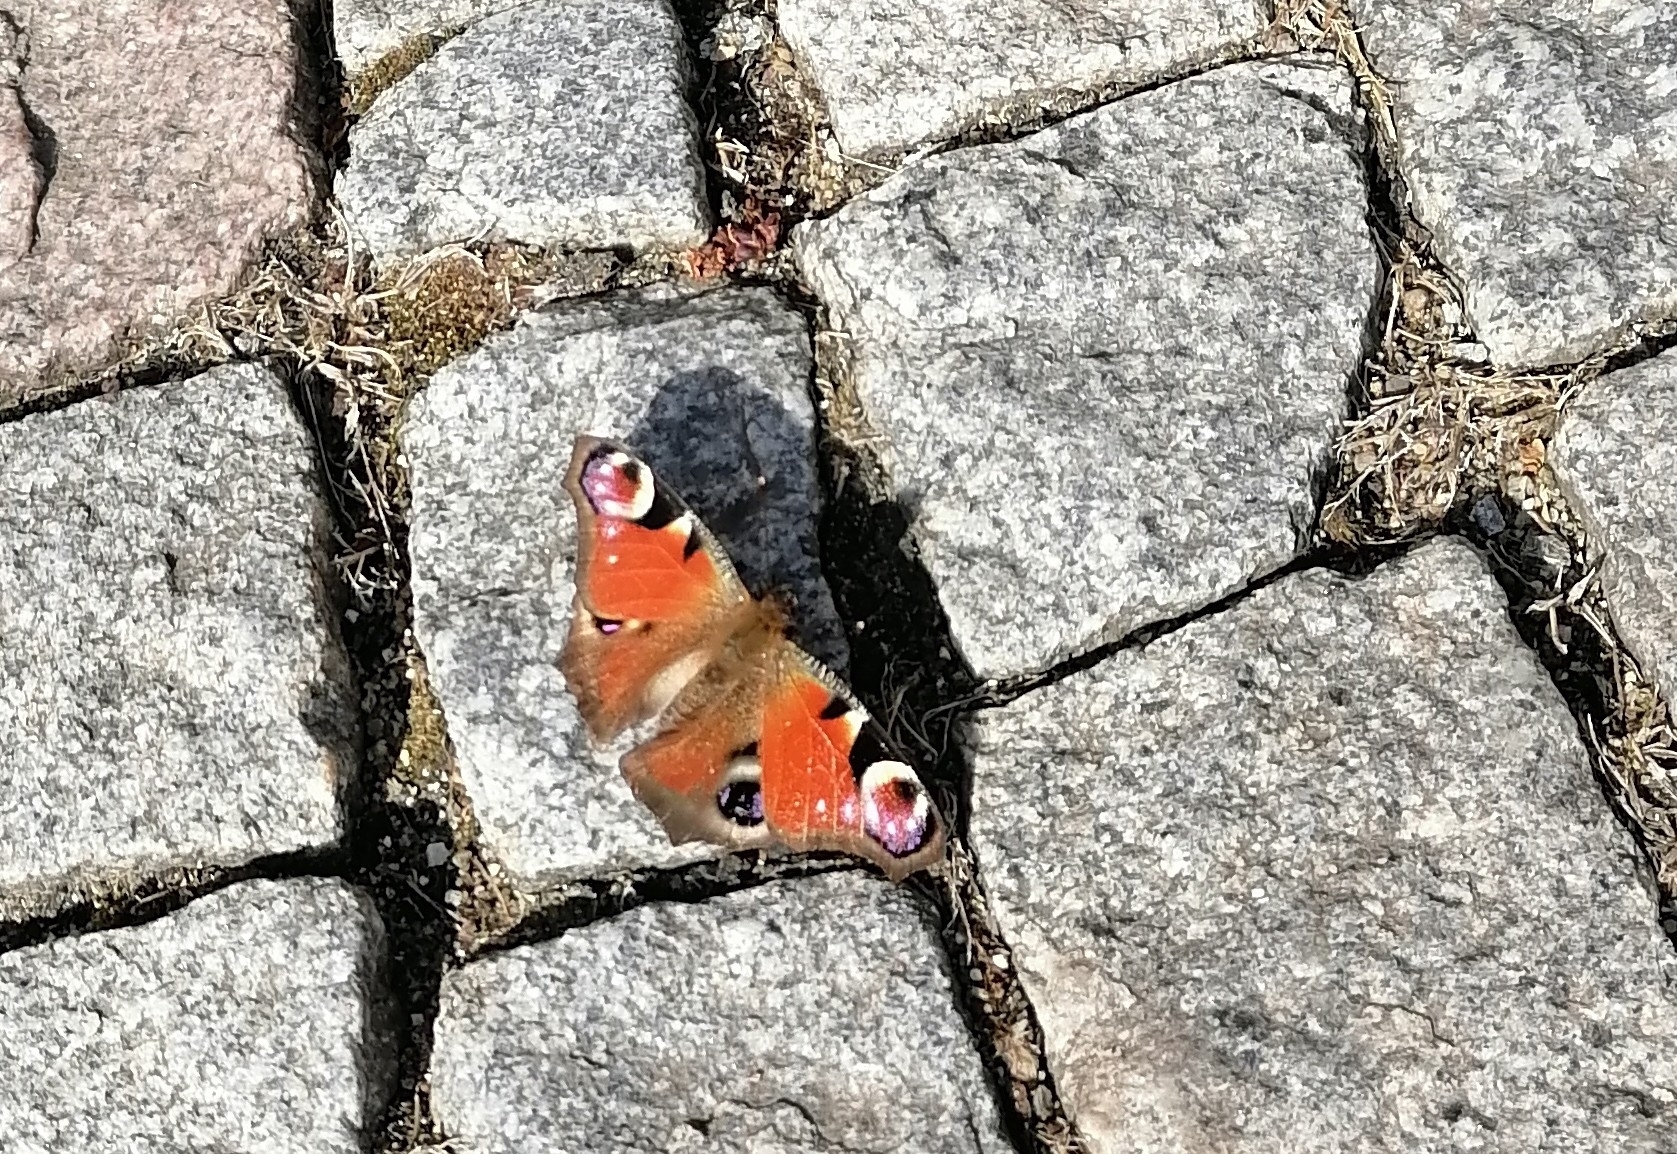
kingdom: Animalia
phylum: Arthropoda
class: Insecta
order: Lepidoptera
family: Nymphalidae
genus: Aglais
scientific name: Aglais io
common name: Peacock
